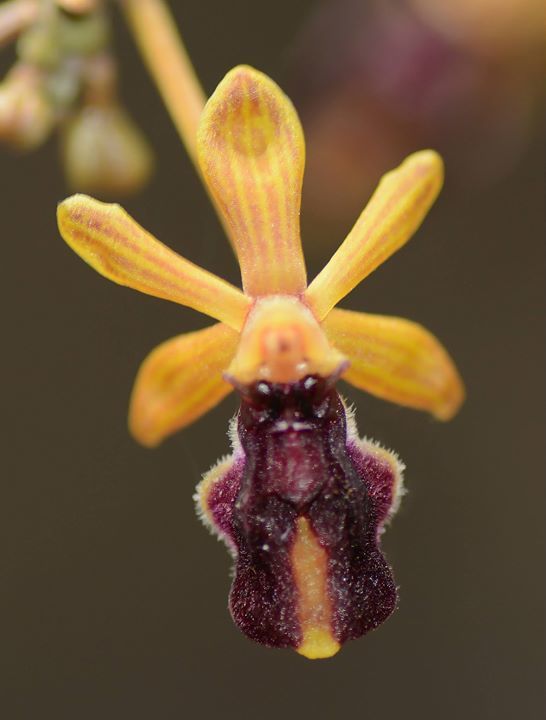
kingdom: Plantae
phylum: Tracheophyta
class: Liliopsida
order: Asparagales
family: Orchidaceae
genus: Cottonia
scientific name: Cottonia peduncularis
